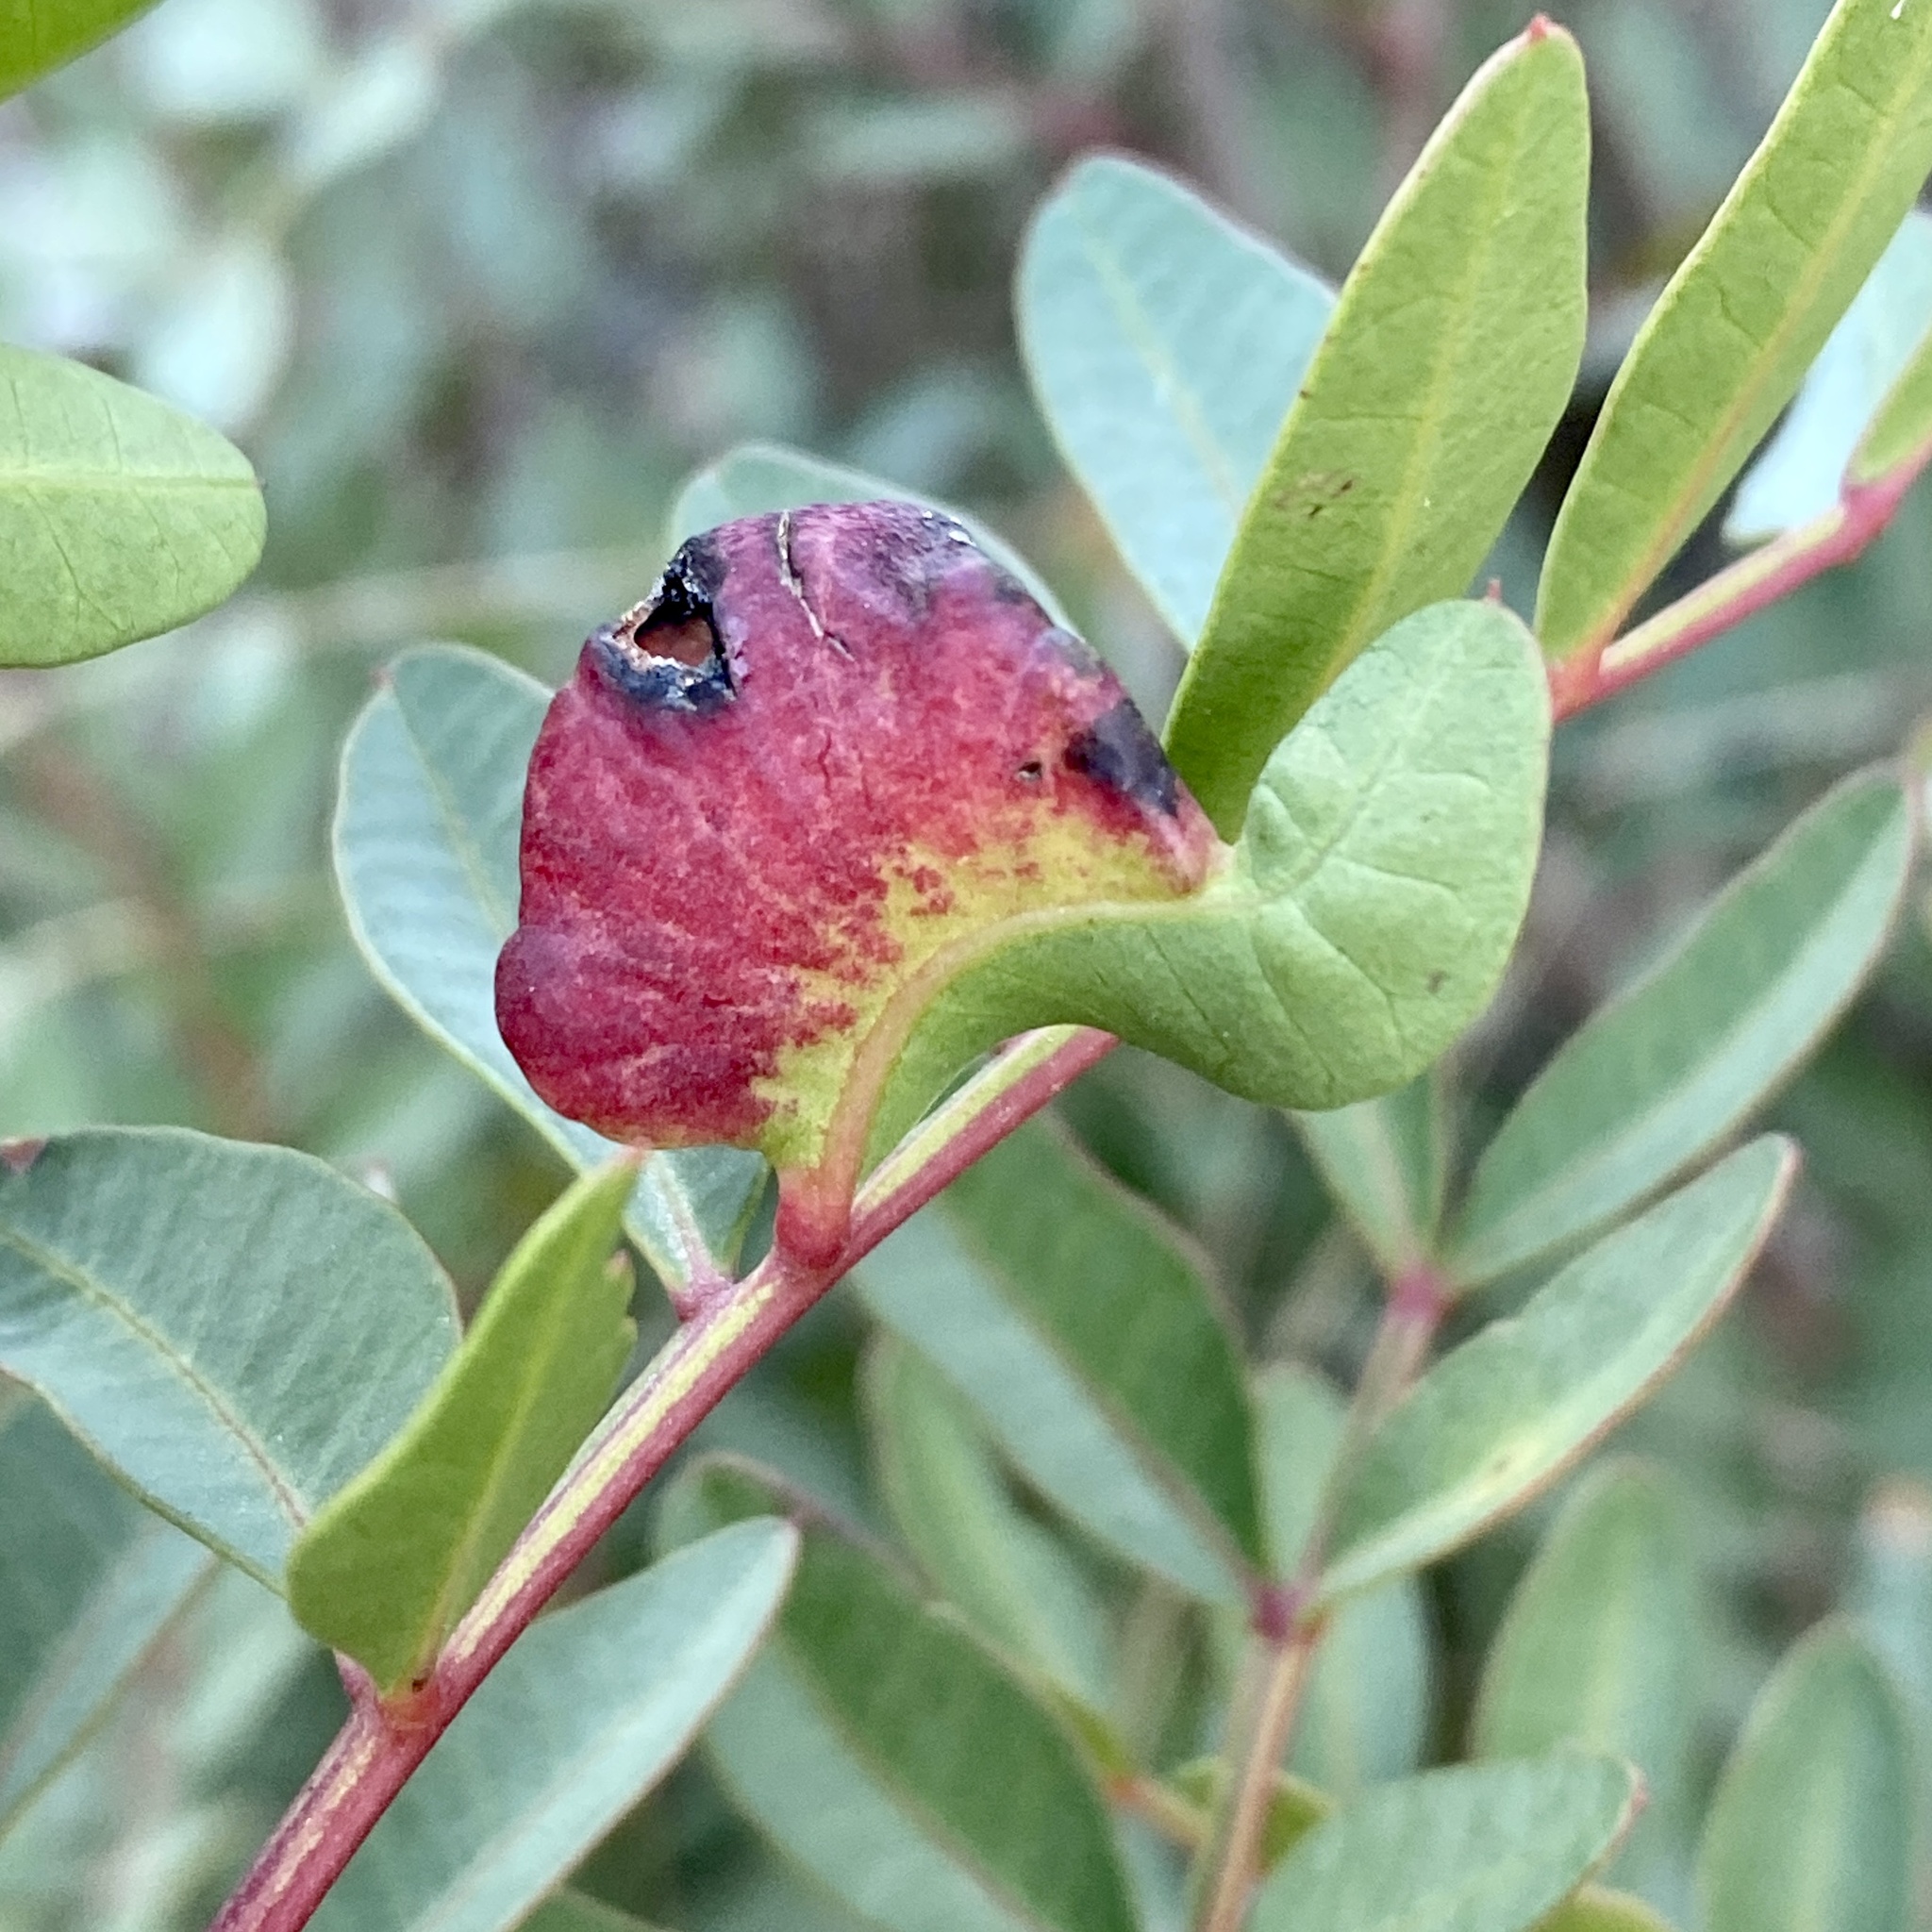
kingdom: Animalia
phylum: Arthropoda
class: Insecta
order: Hemiptera
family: Aphididae
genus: Aploneura
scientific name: Aploneura lentisci
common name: Mealy grass root aphid
